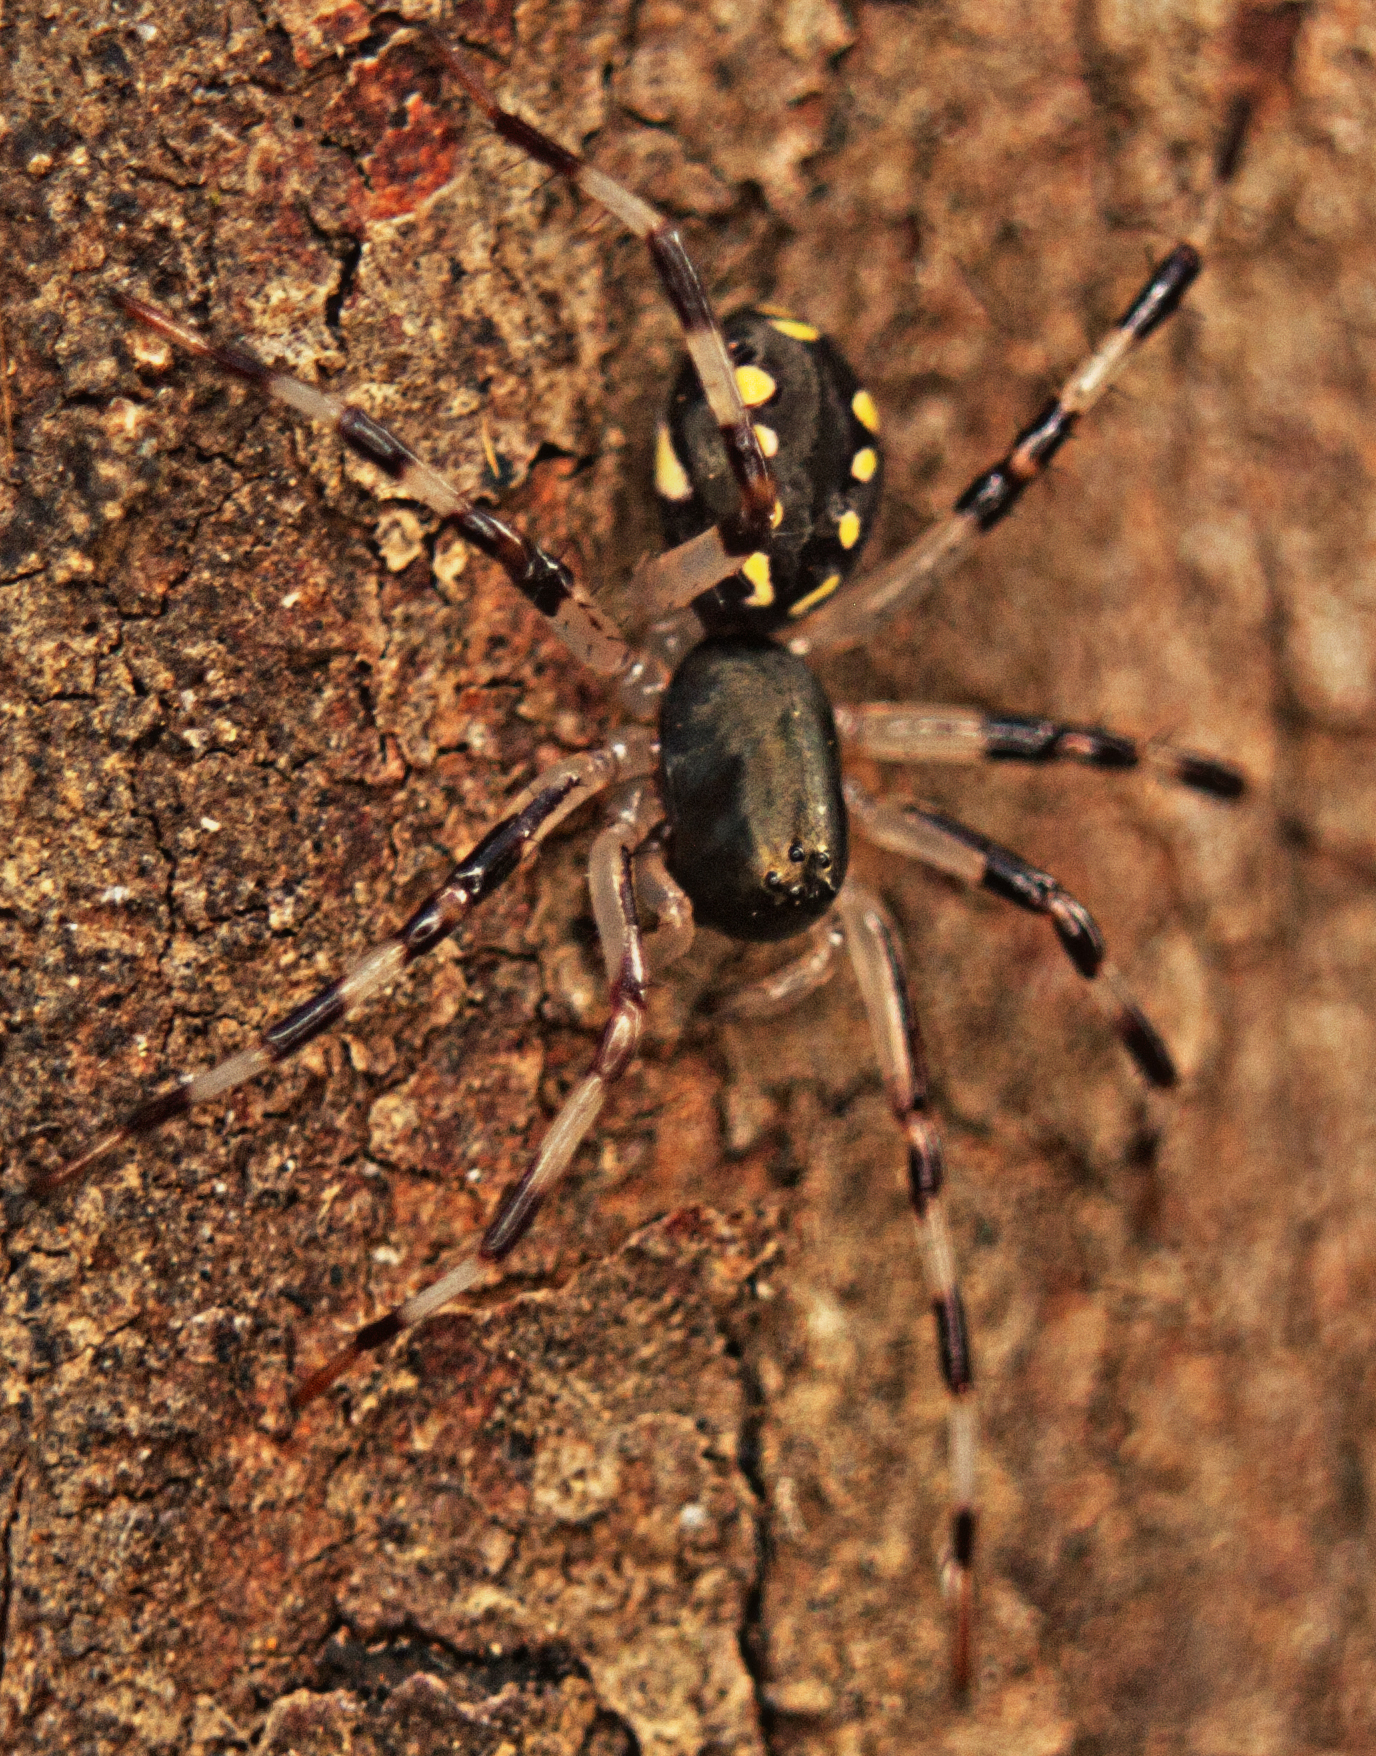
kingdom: Animalia
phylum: Arthropoda
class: Arachnida
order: Araneae
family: Zodariidae
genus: Subasteron
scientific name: Subasteron daviesae
